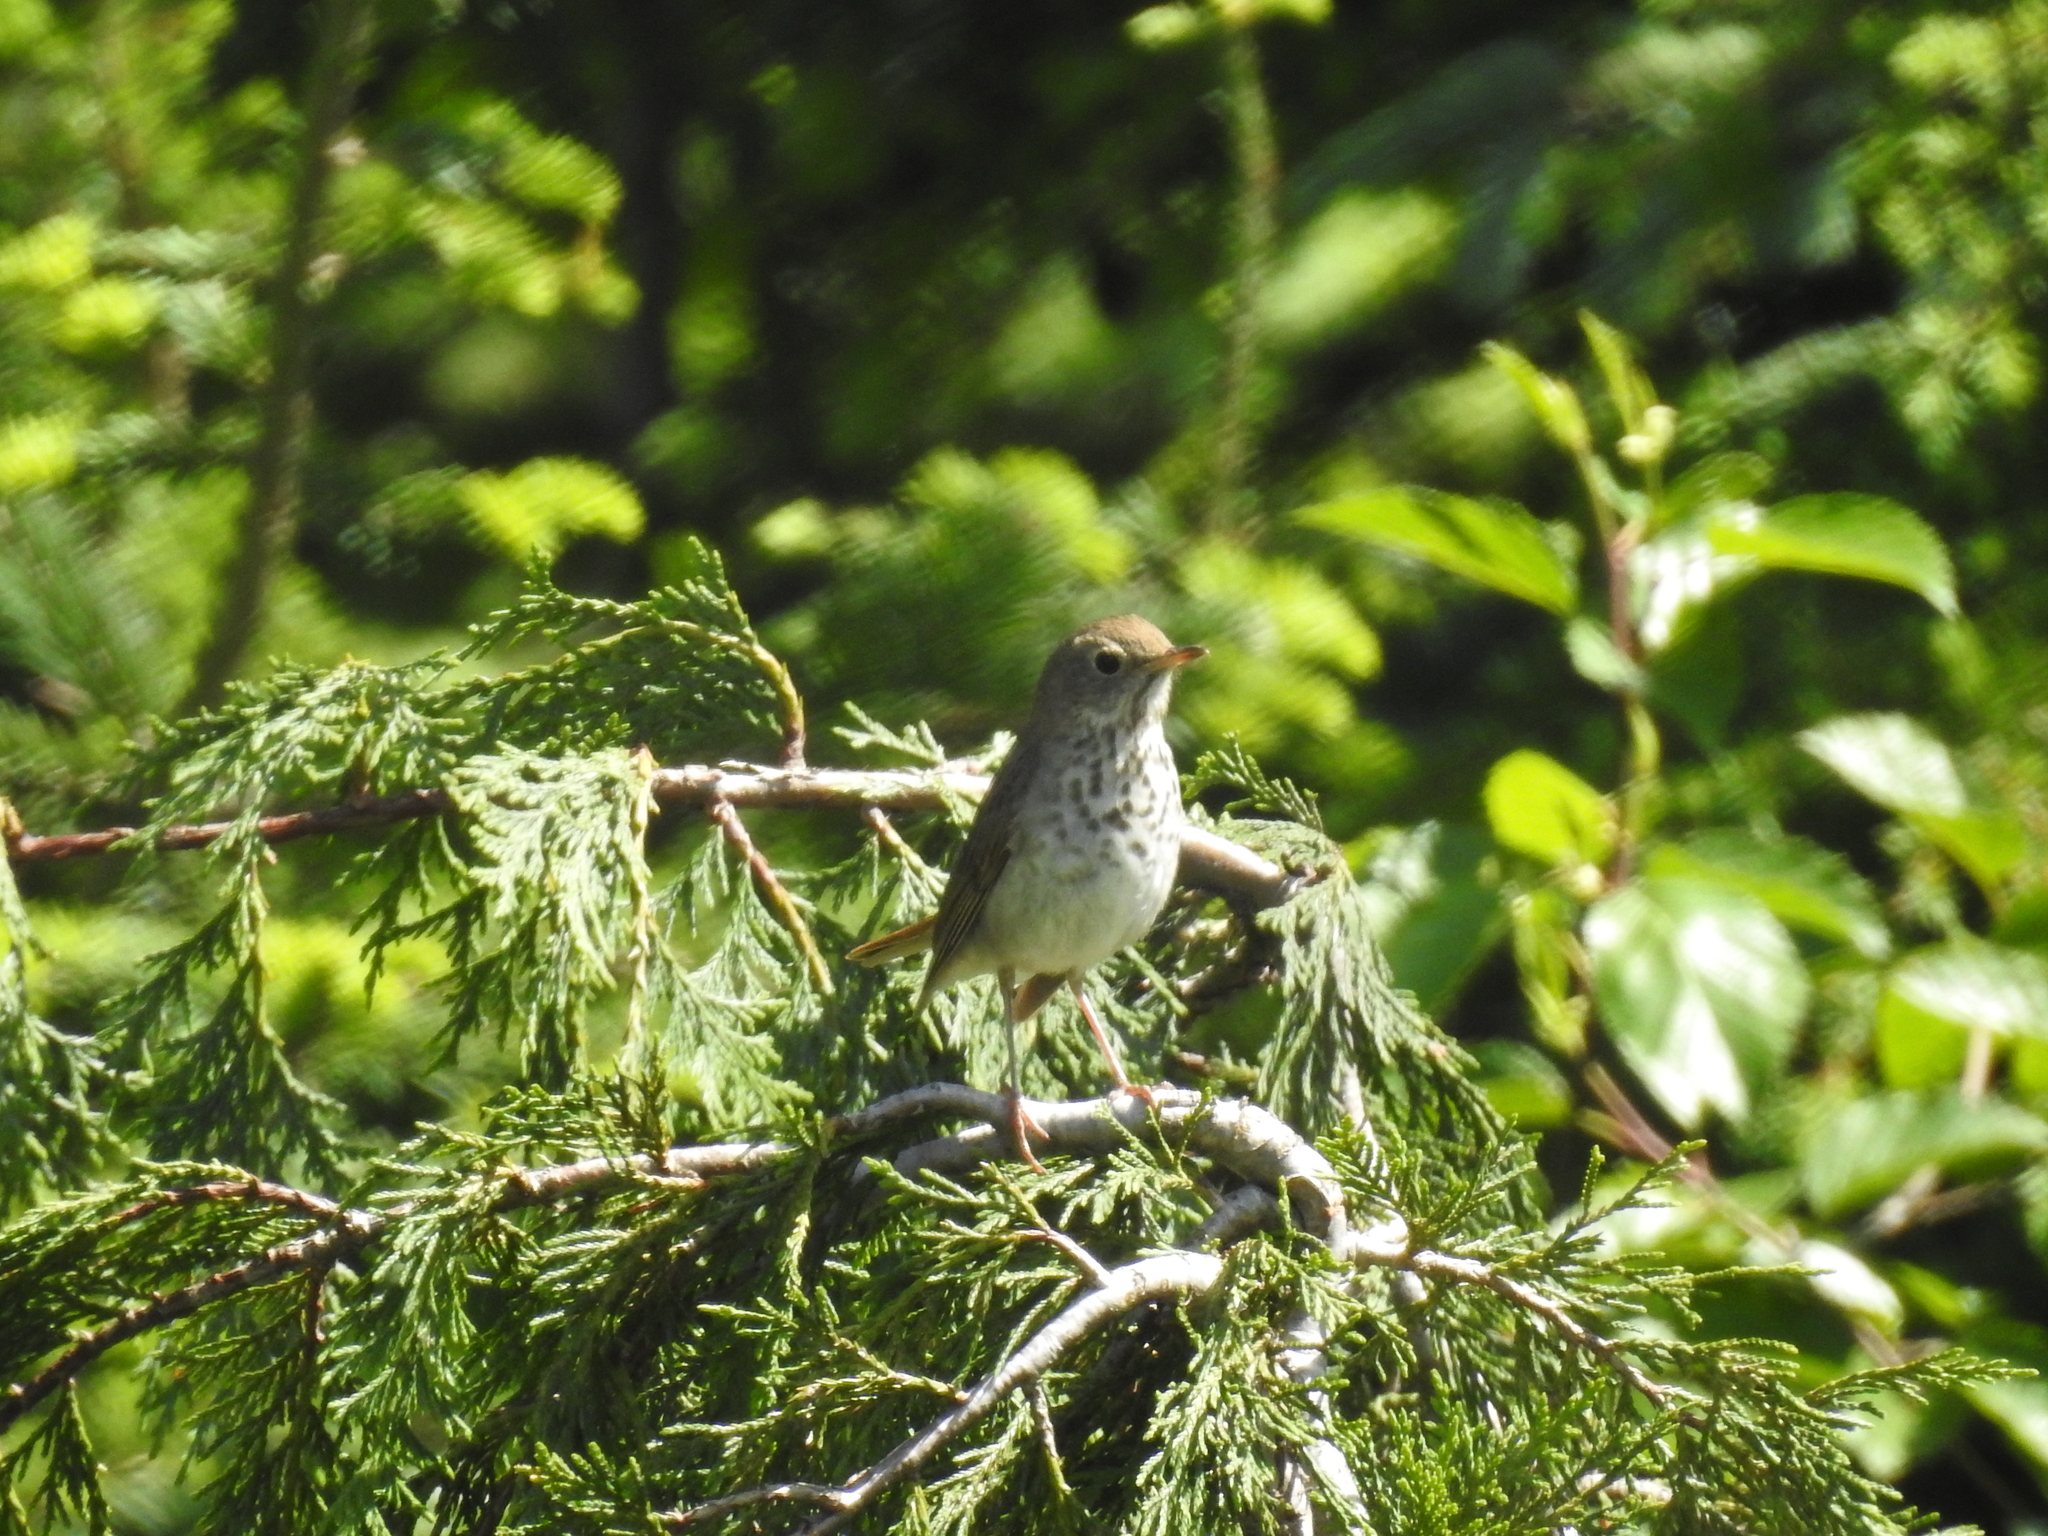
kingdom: Animalia
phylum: Chordata
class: Aves
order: Passeriformes
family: Turdidae
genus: Catharus
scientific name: Catharus guttatus
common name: Hermit thrush
